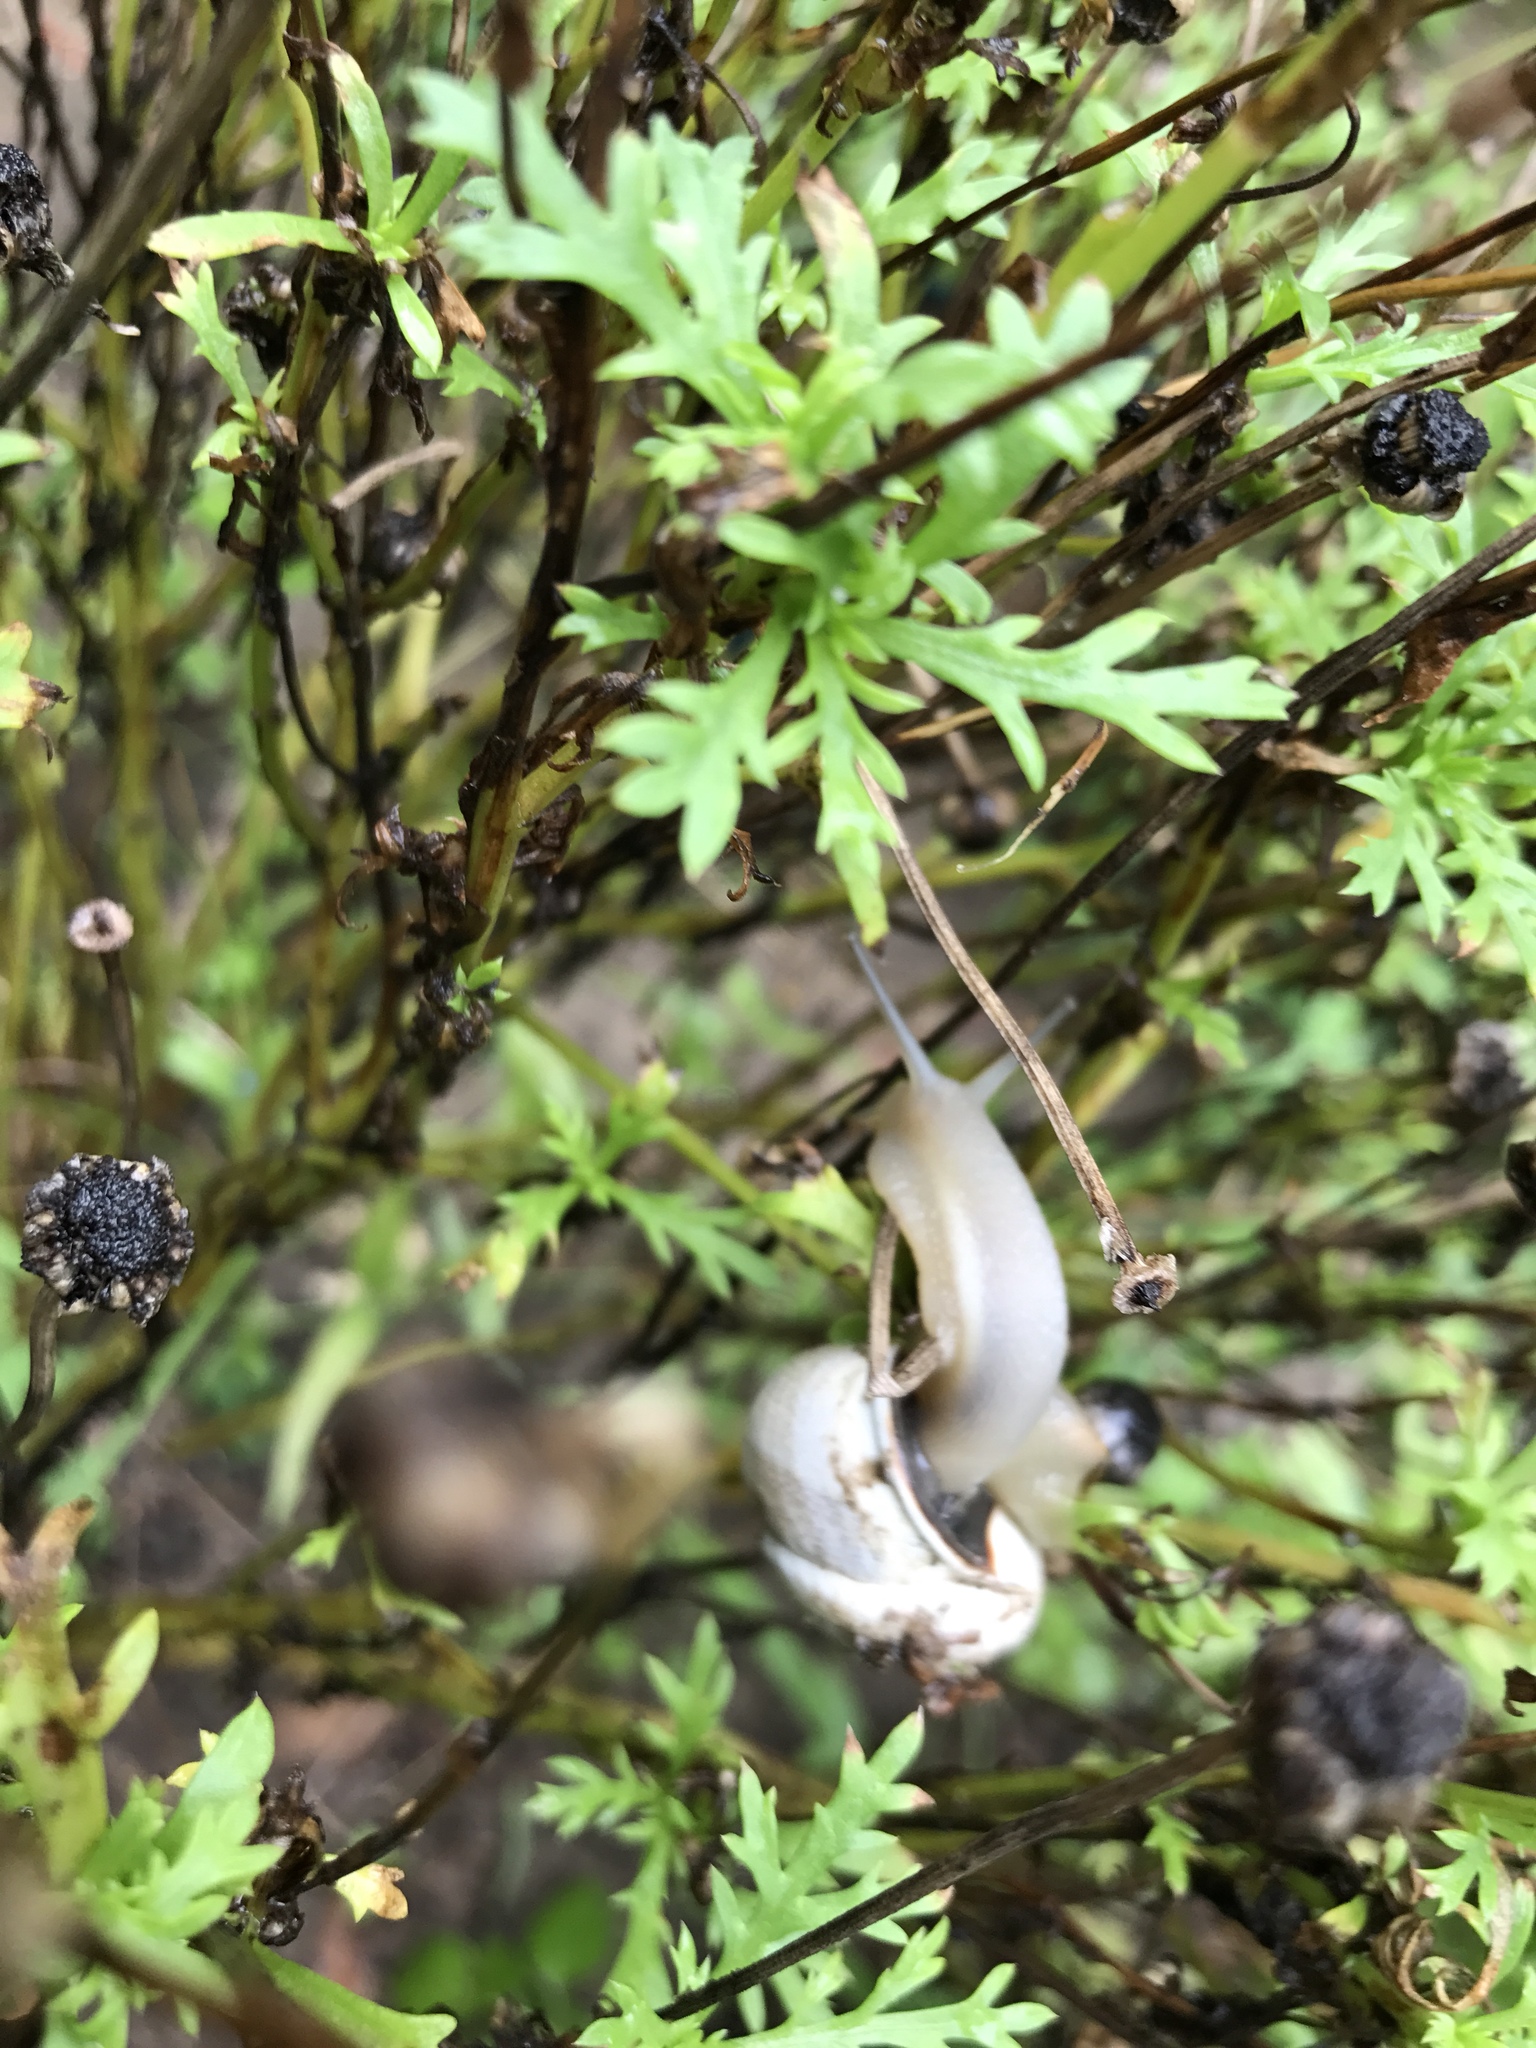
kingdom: Animalia
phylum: Mollusca
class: Gastropoda
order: Stylommatophora
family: Helicidae
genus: Otala
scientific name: Otala lactea
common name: Milk snail
